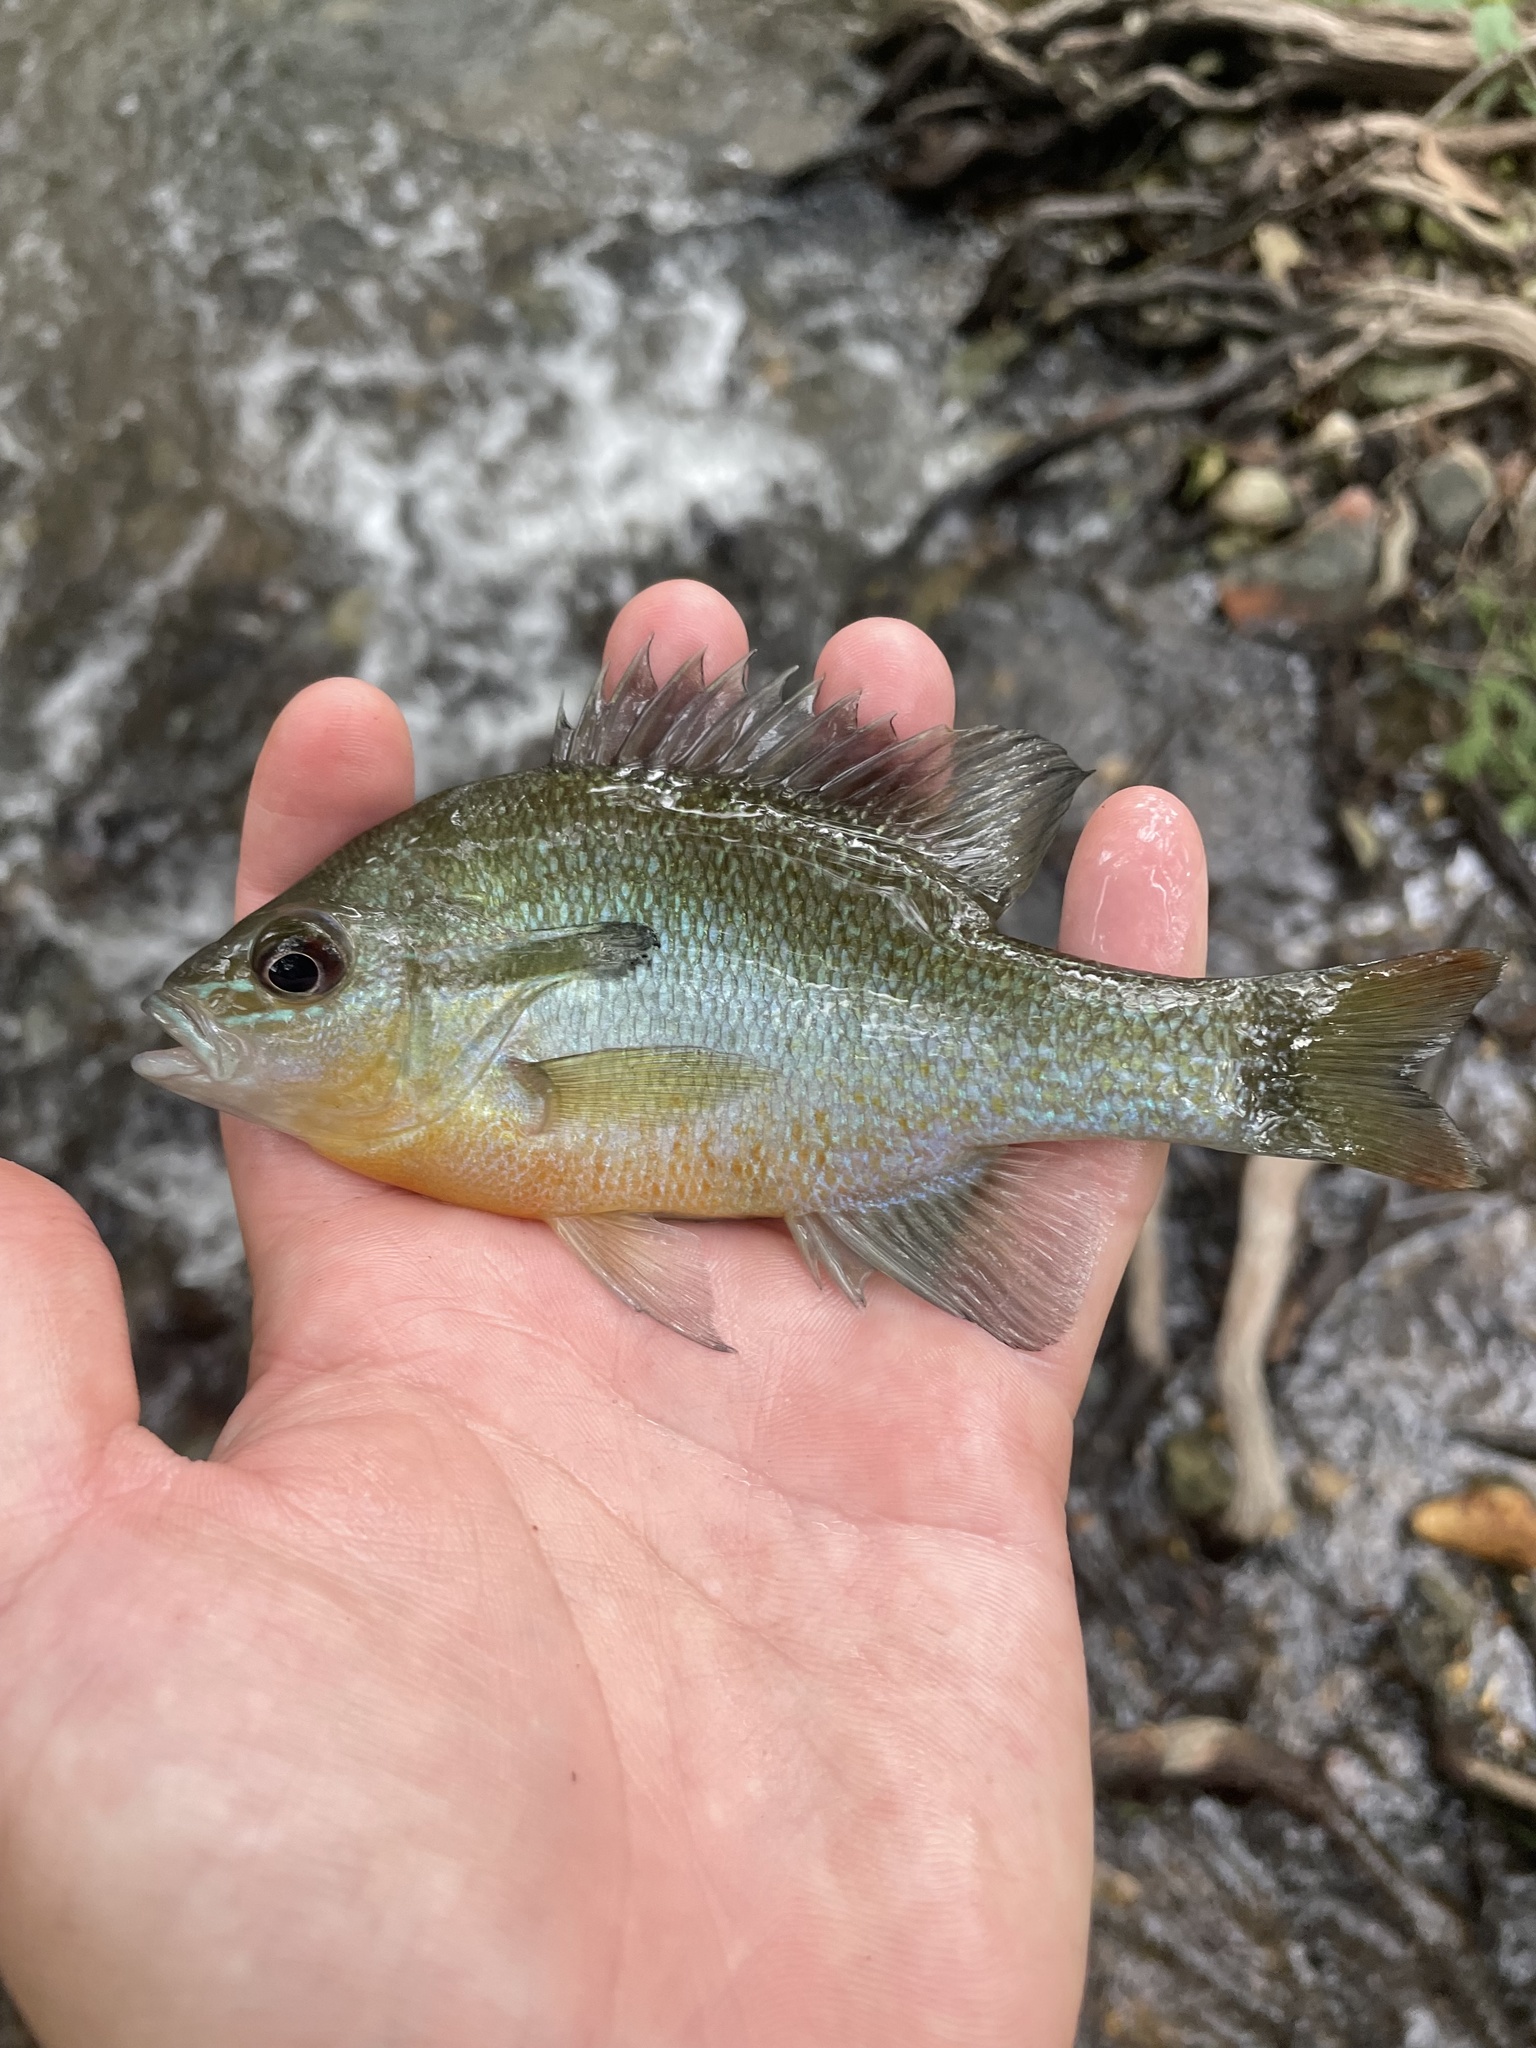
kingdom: Animalia
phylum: Chordata
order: Perciformes
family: Centrarchidae
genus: Lepomis
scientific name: Lepomis auritus
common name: Redbreast sunfish
